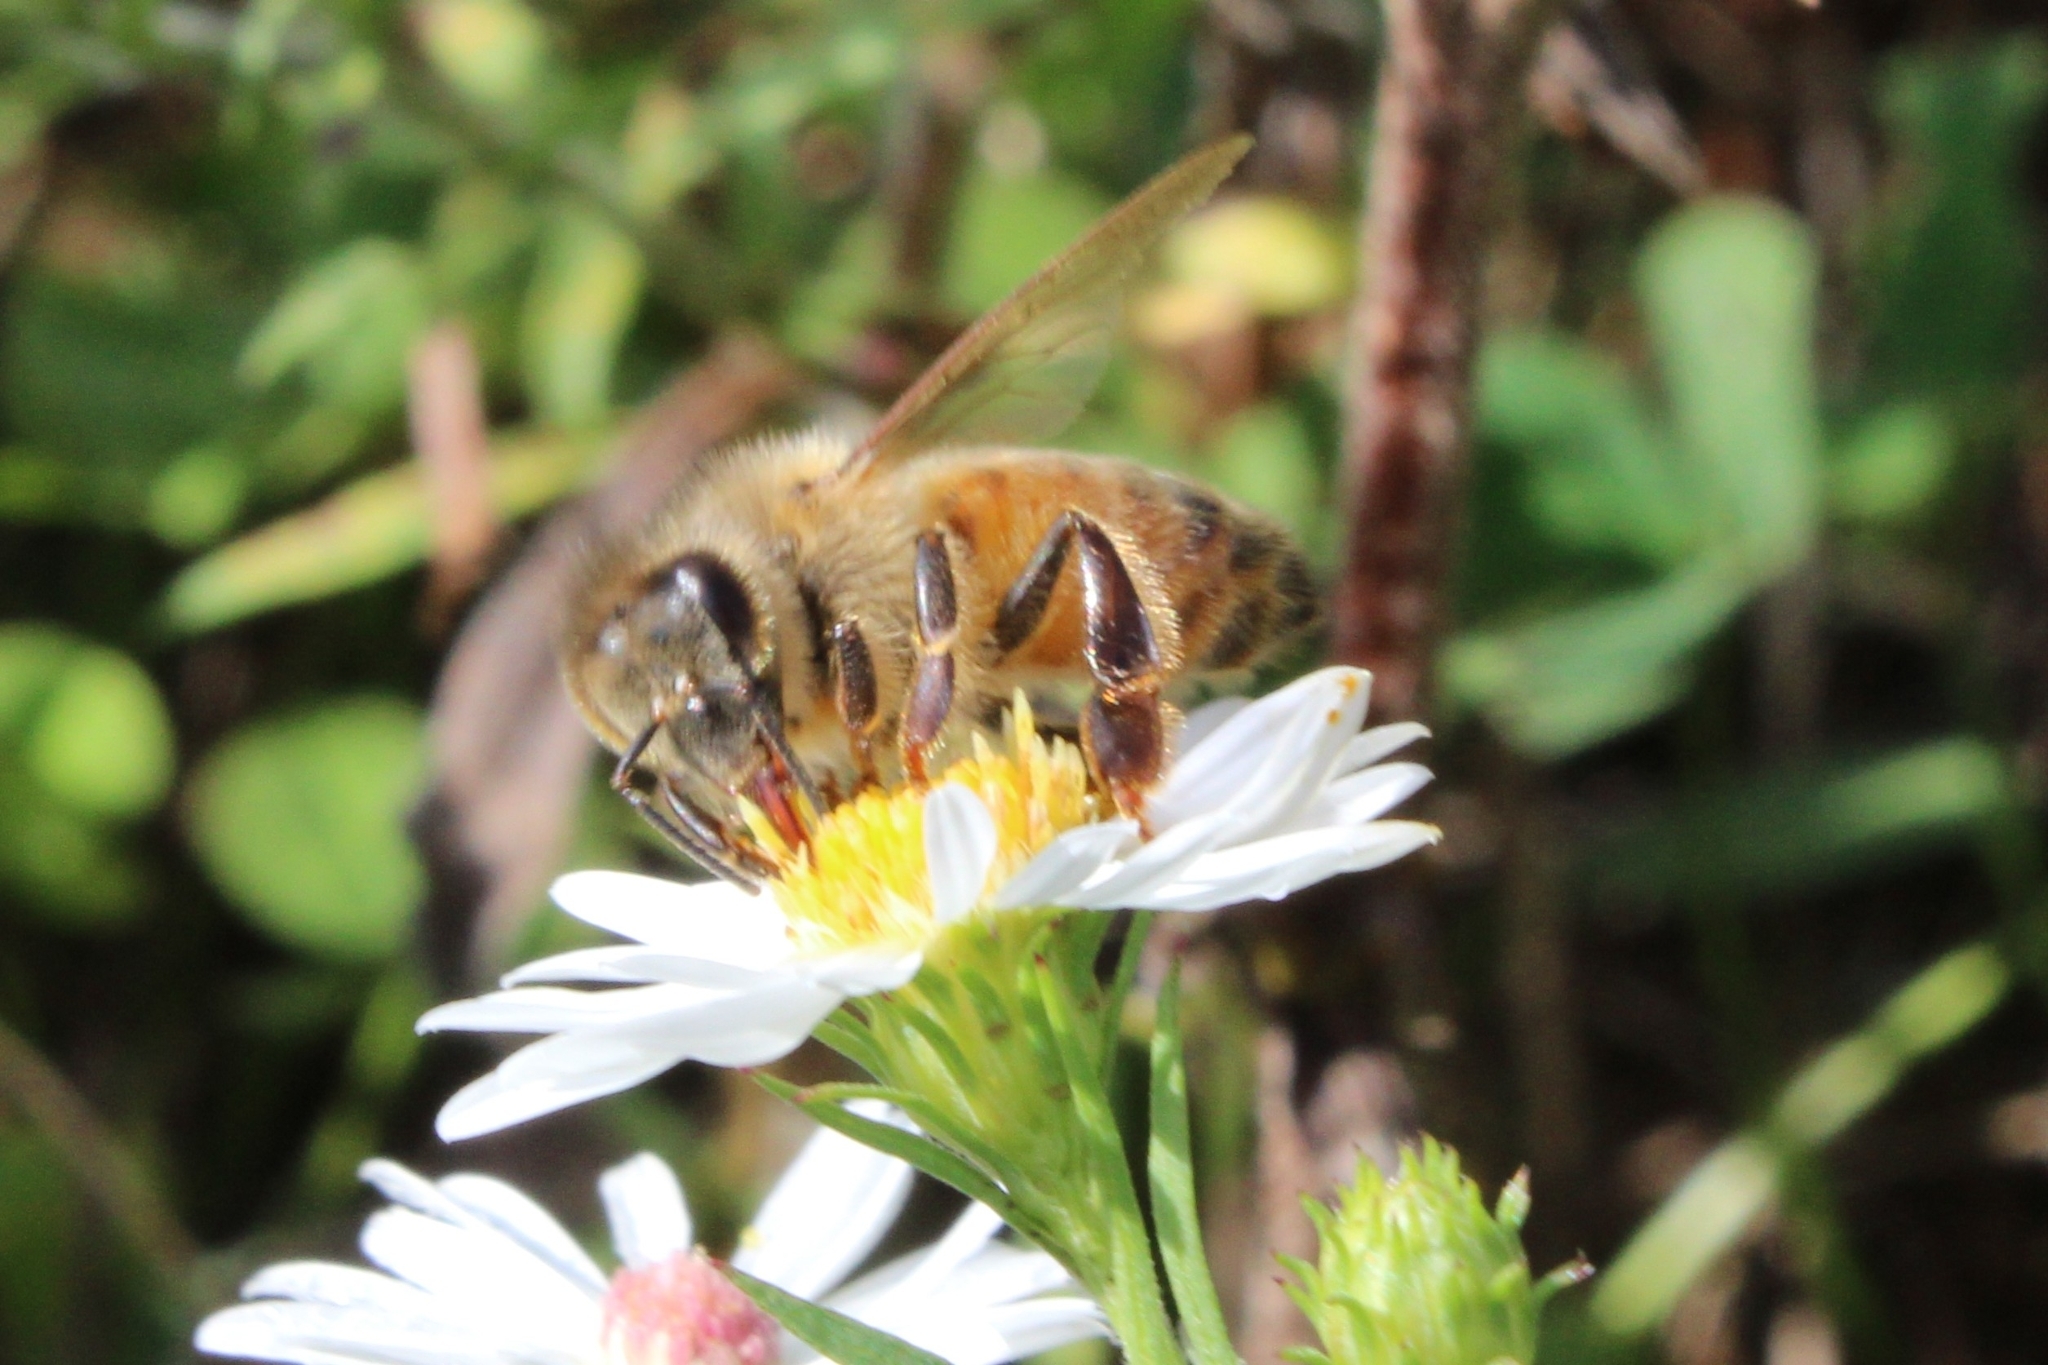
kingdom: Animalia
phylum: Arthropoda
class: Insecta
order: Hymenoptera
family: Apidae
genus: Apis
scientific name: Apis mellifera
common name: Honey bee
